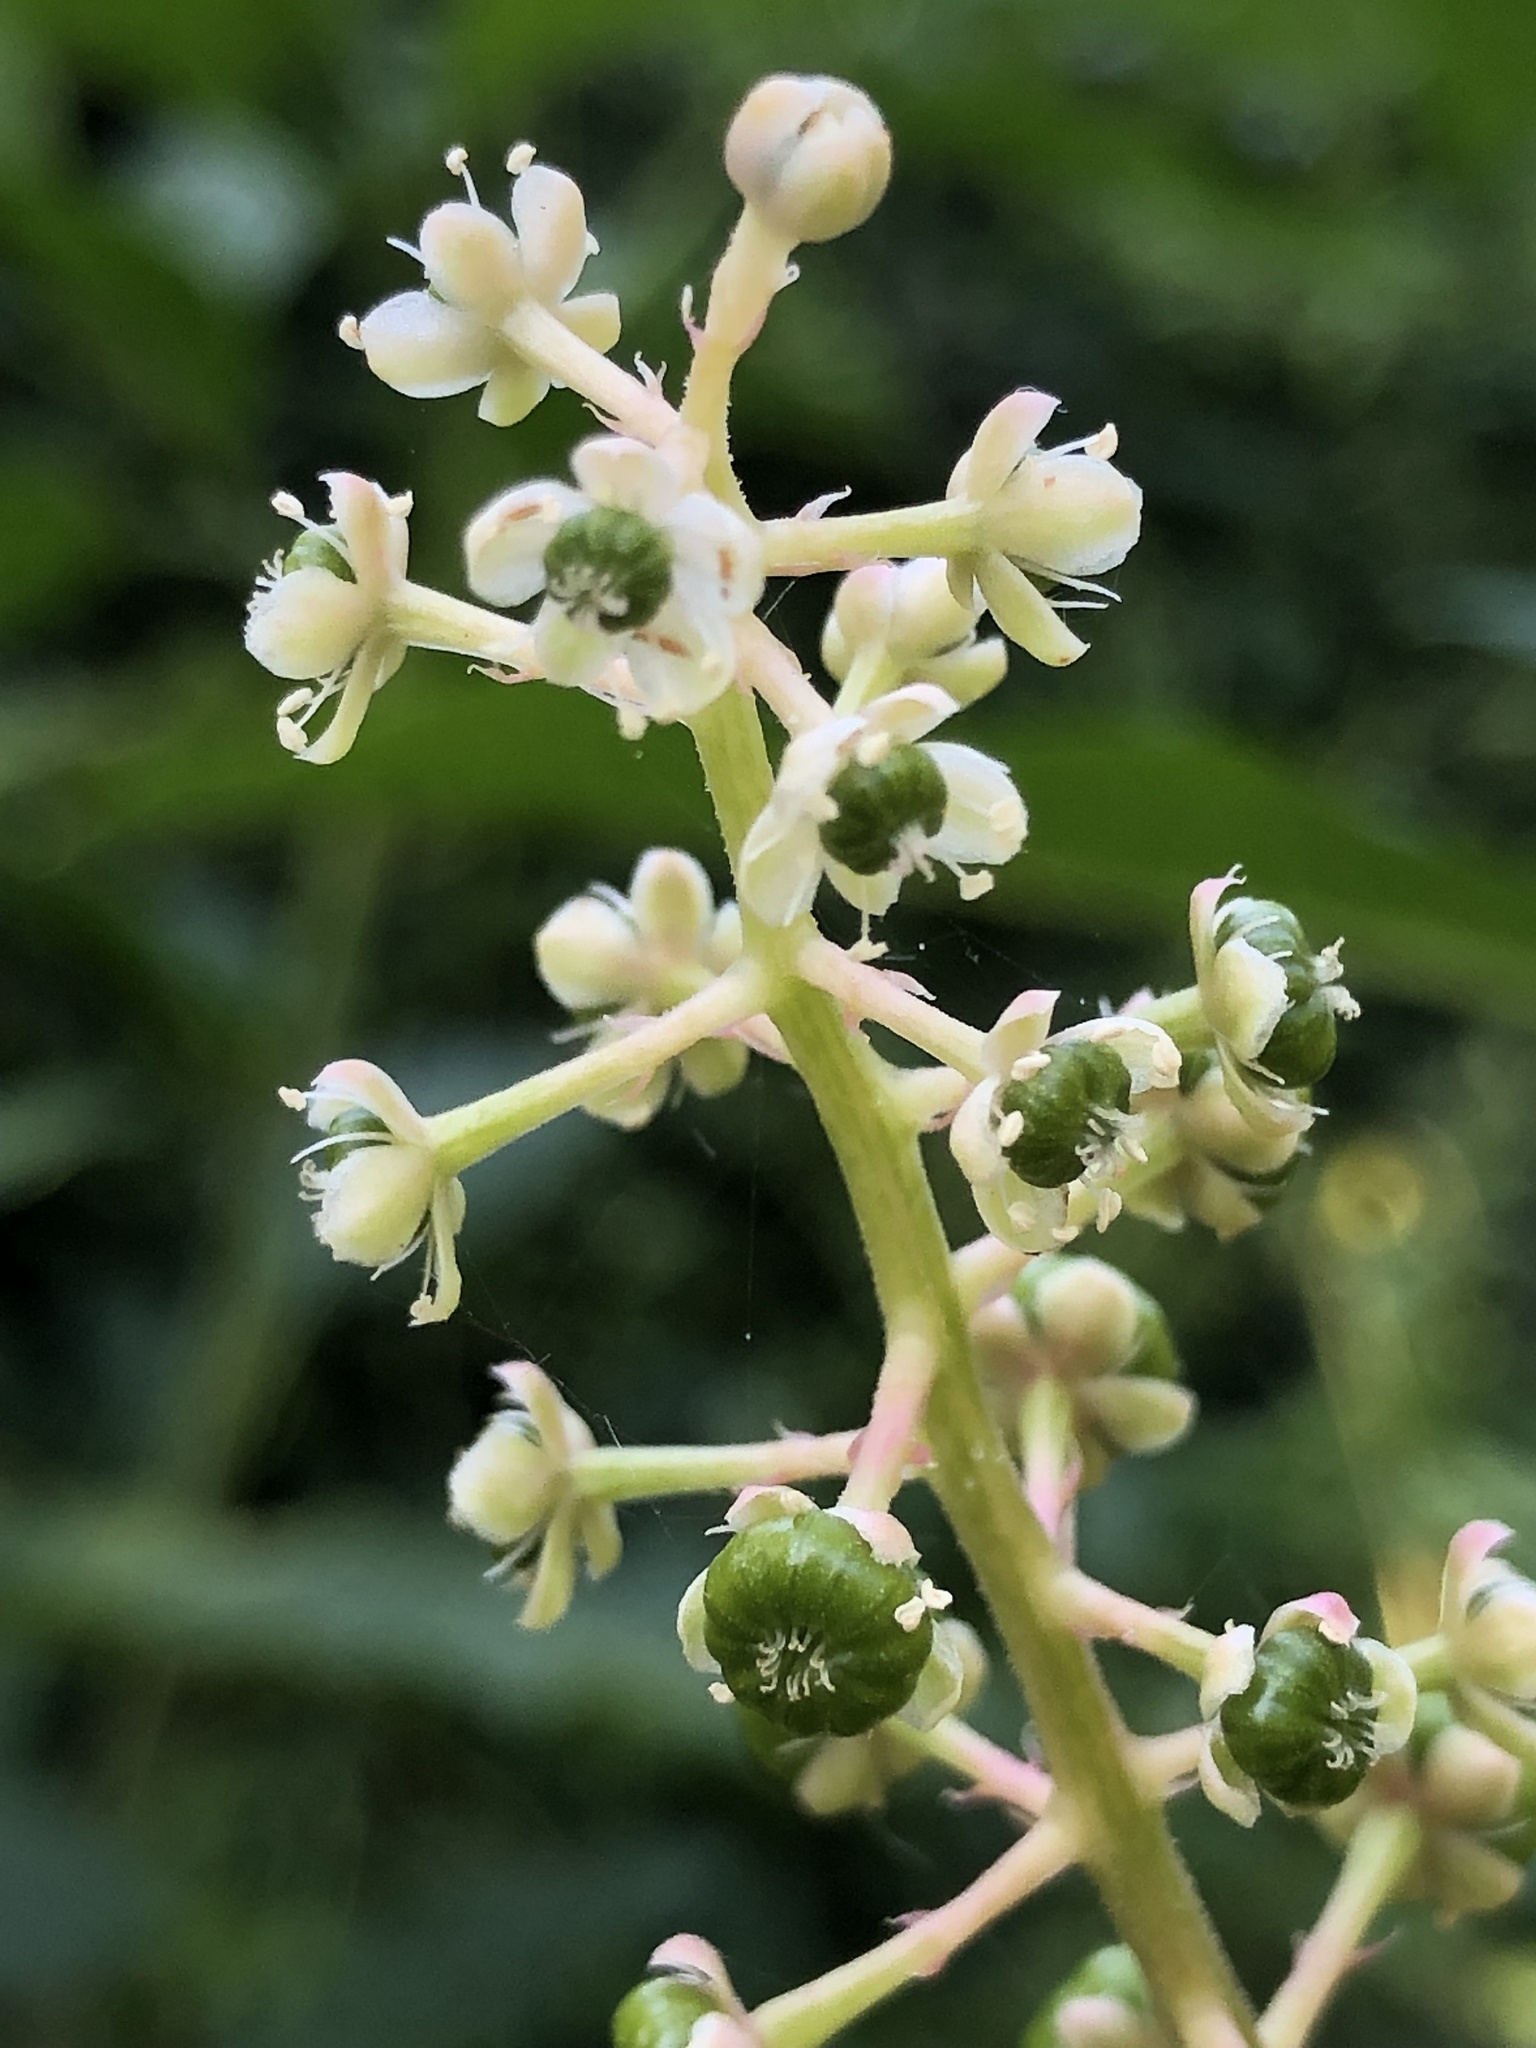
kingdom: Plantae
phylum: Tracheophyta
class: Magnoliopsida
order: Caryophyllales
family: Phytolaccaceae
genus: Phytolacca
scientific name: Phytolacca americana
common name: American pokeweed
